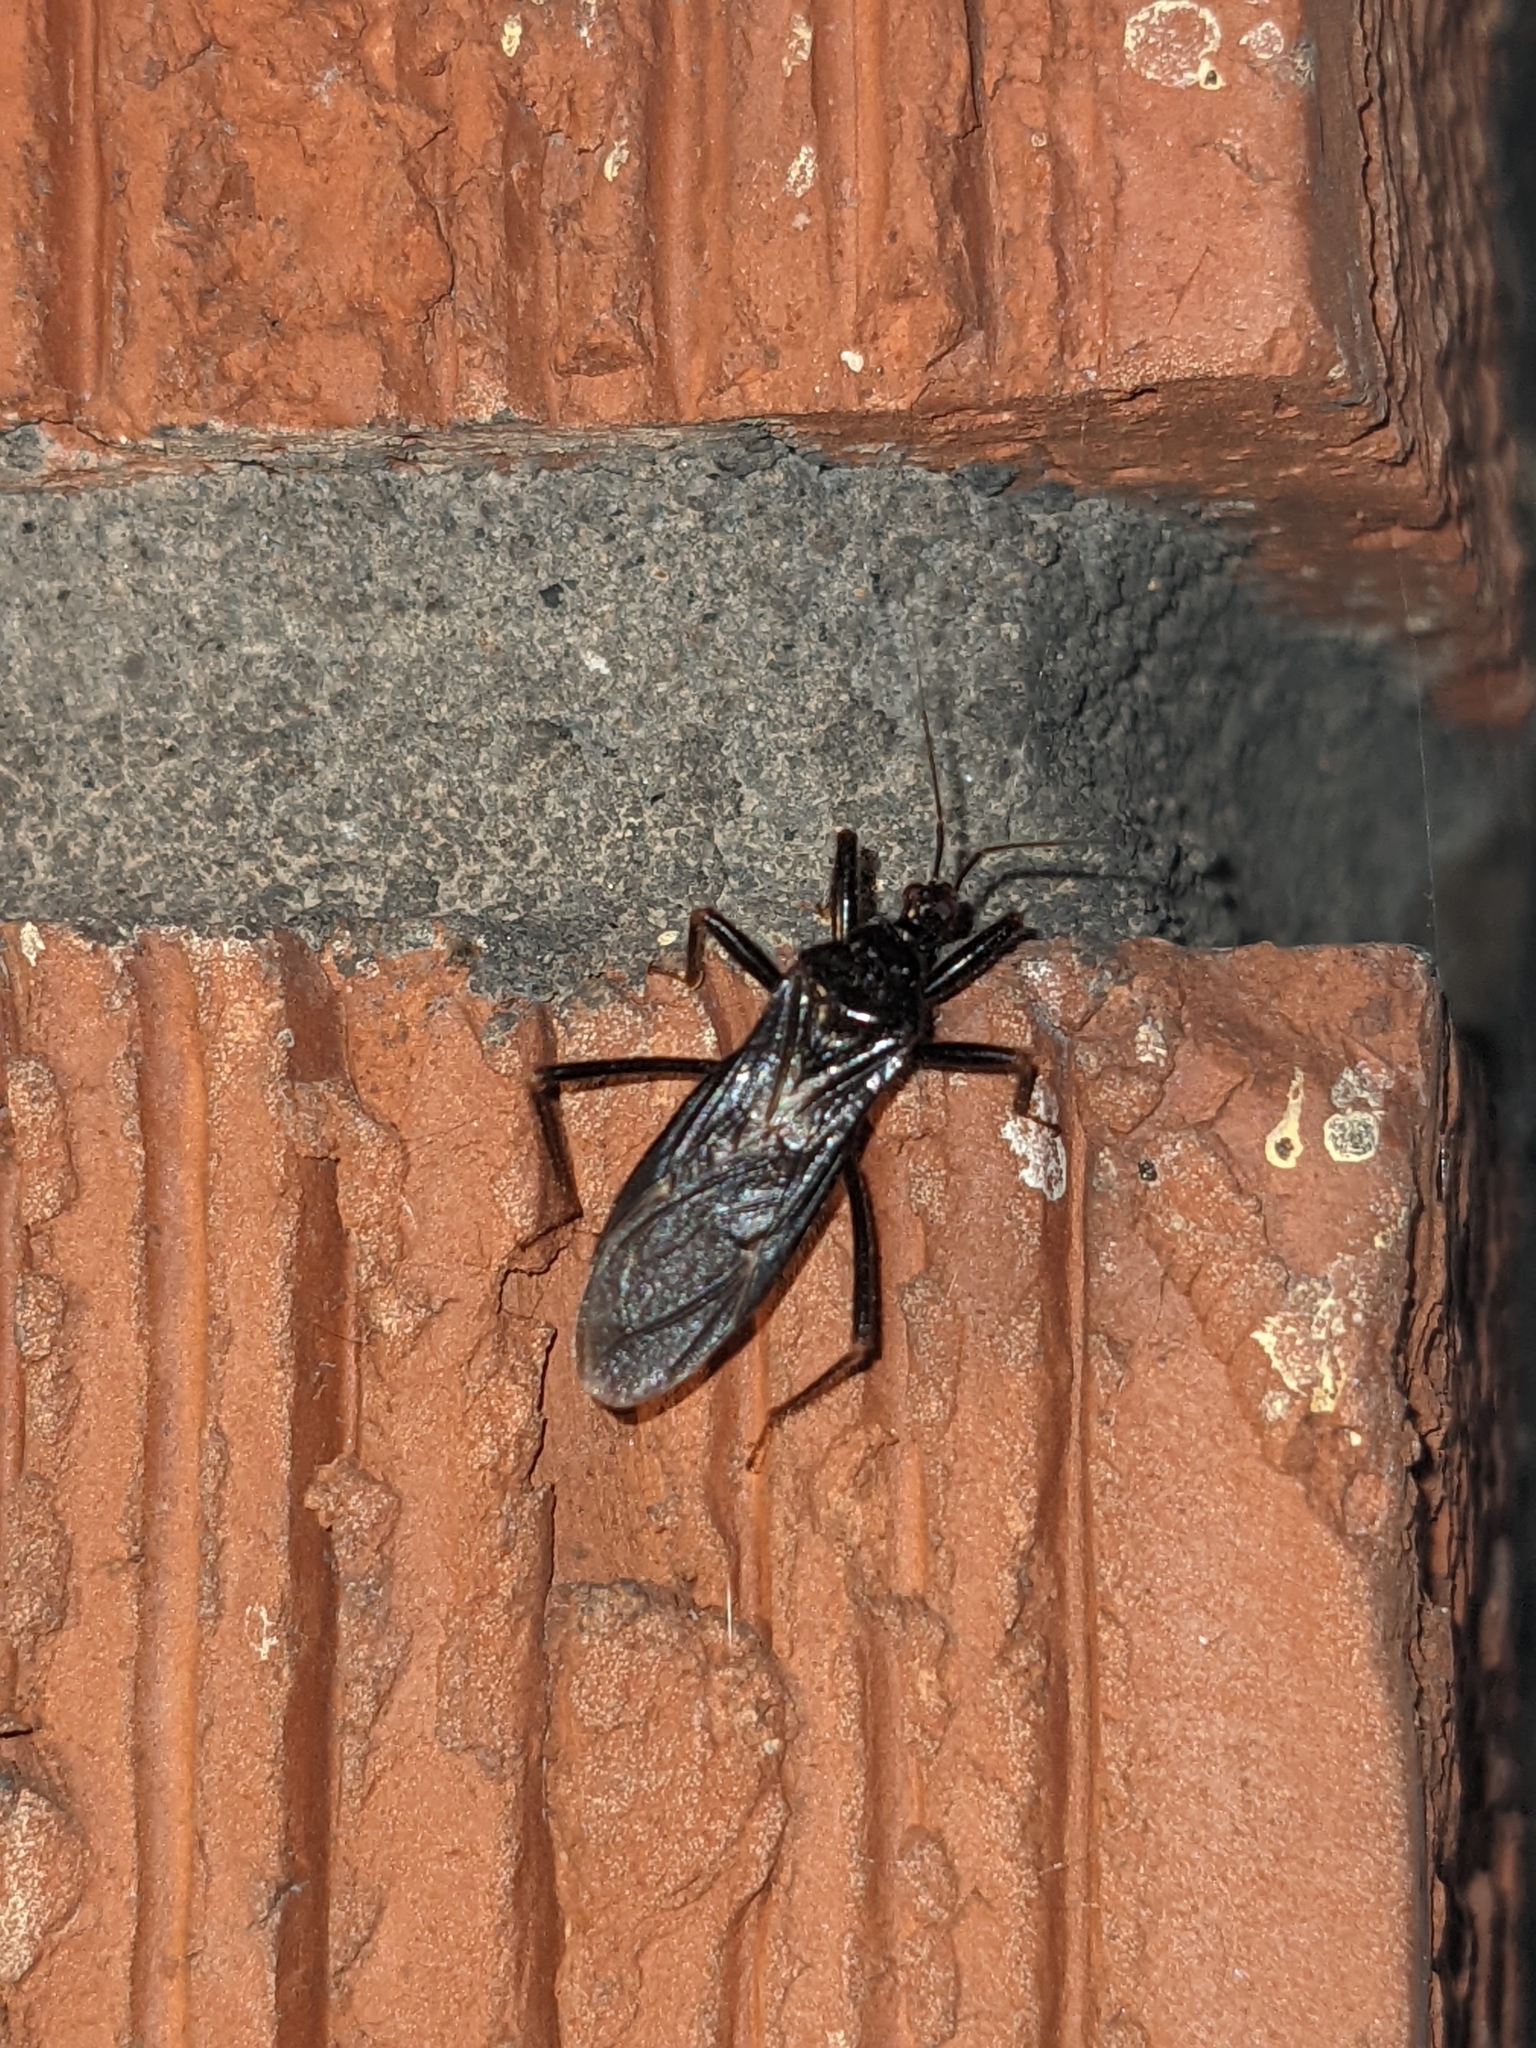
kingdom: Animalia
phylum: Arthropoda
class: Insecta
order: Hemiptera
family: Reduviidae
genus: Reduvius
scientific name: Reduvius personatus
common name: Masked hunter
